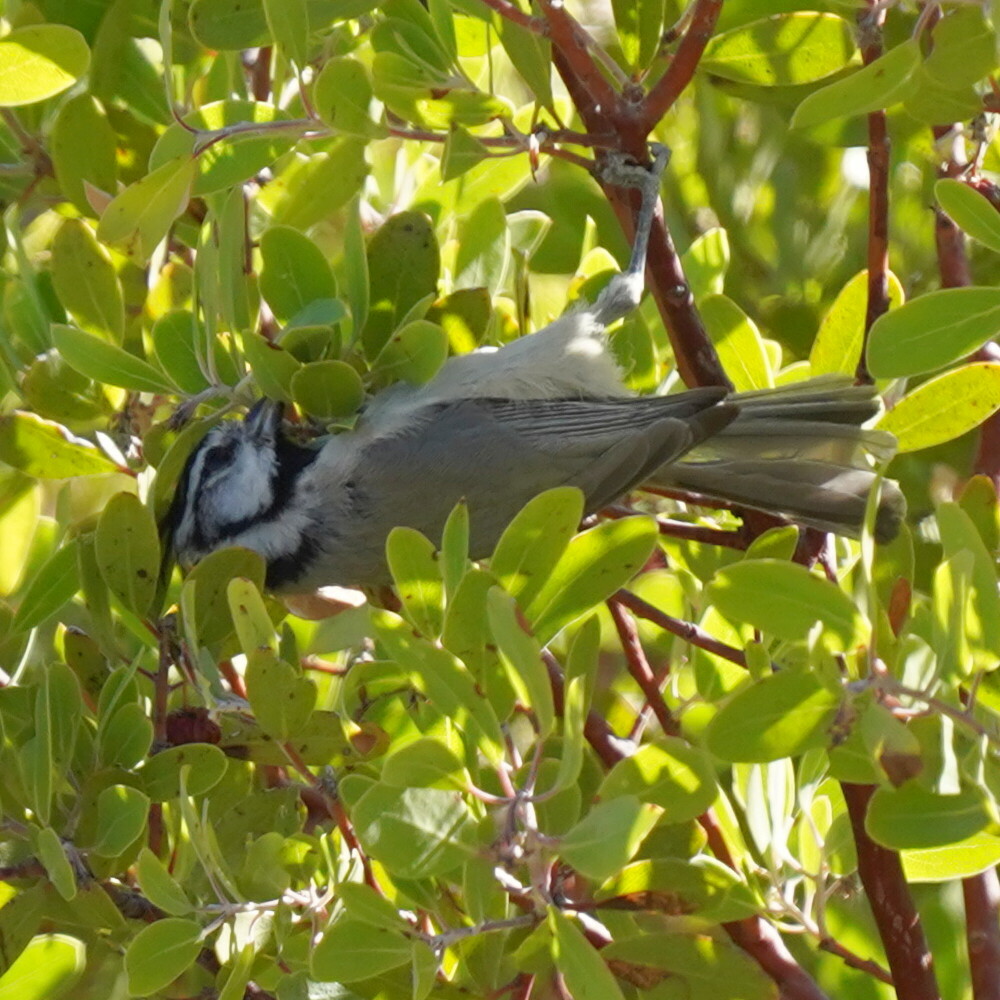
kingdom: Animalia
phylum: Chordata
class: Aves
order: Passeriformes
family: Paridae
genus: Baeolophus
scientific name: Baeolophus wollweberi
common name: Bridled titmouse
